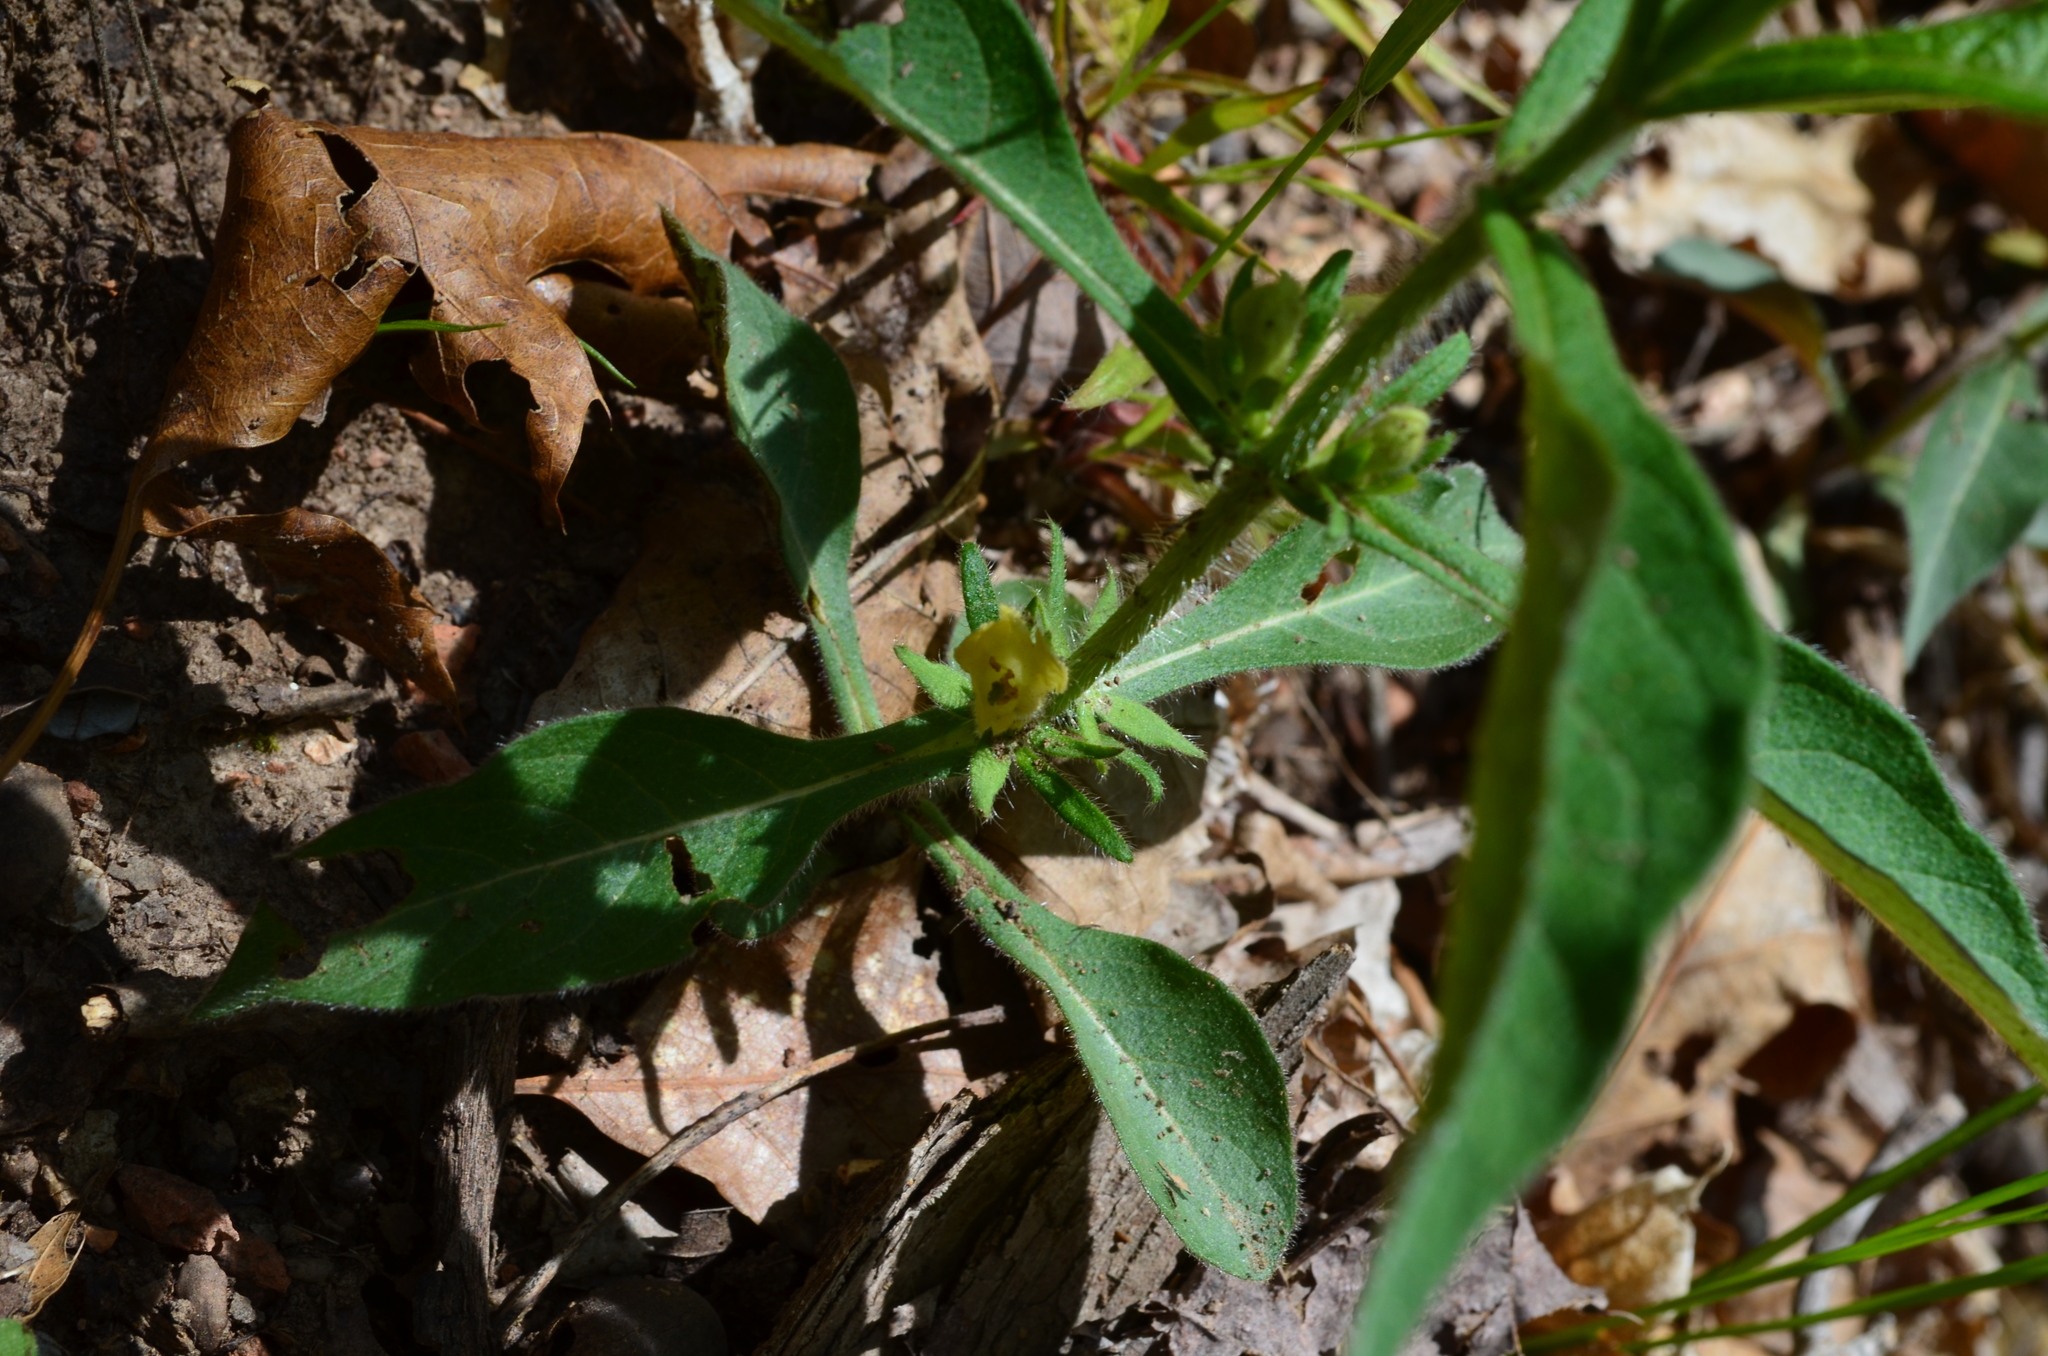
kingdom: Plantae
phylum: Tracheophyta
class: Magnoliopsida
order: Dipsacales
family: Caprifoliaceae
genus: Triosteum
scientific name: Triosteum angustifolium
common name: Narrow-leaved horse-gentian
